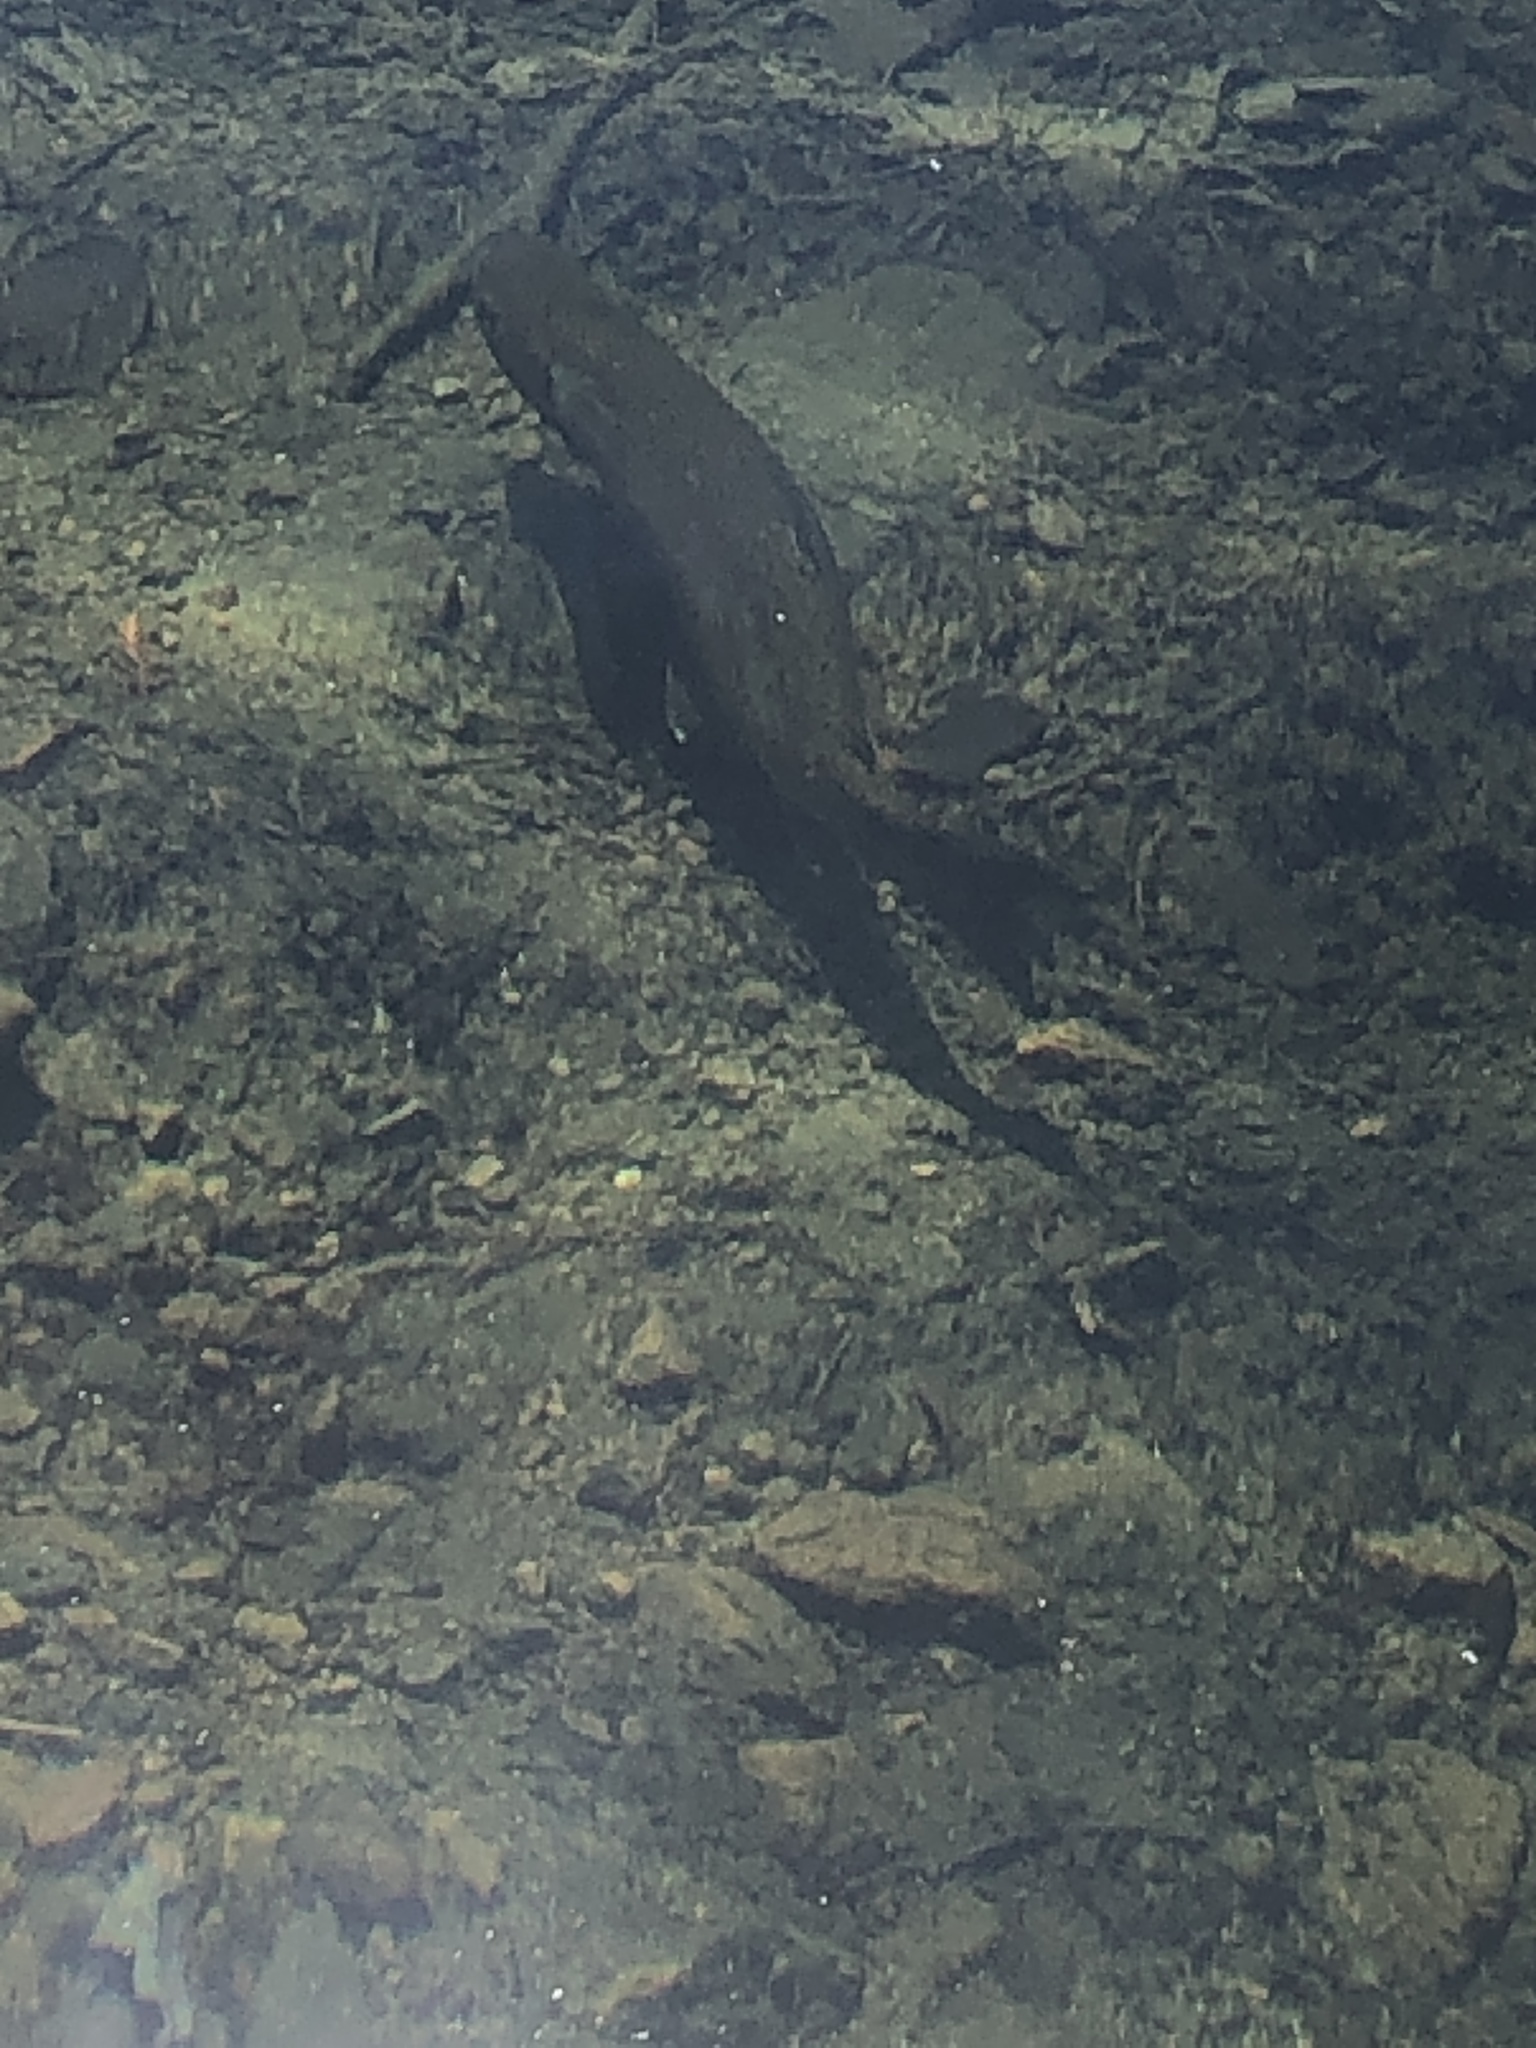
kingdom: Animalia
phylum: Chordata
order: Salmoniformes
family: Salmonidae
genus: Oncorhynchus
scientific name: Oncorhynchus mykiss
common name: Rainbow trout
